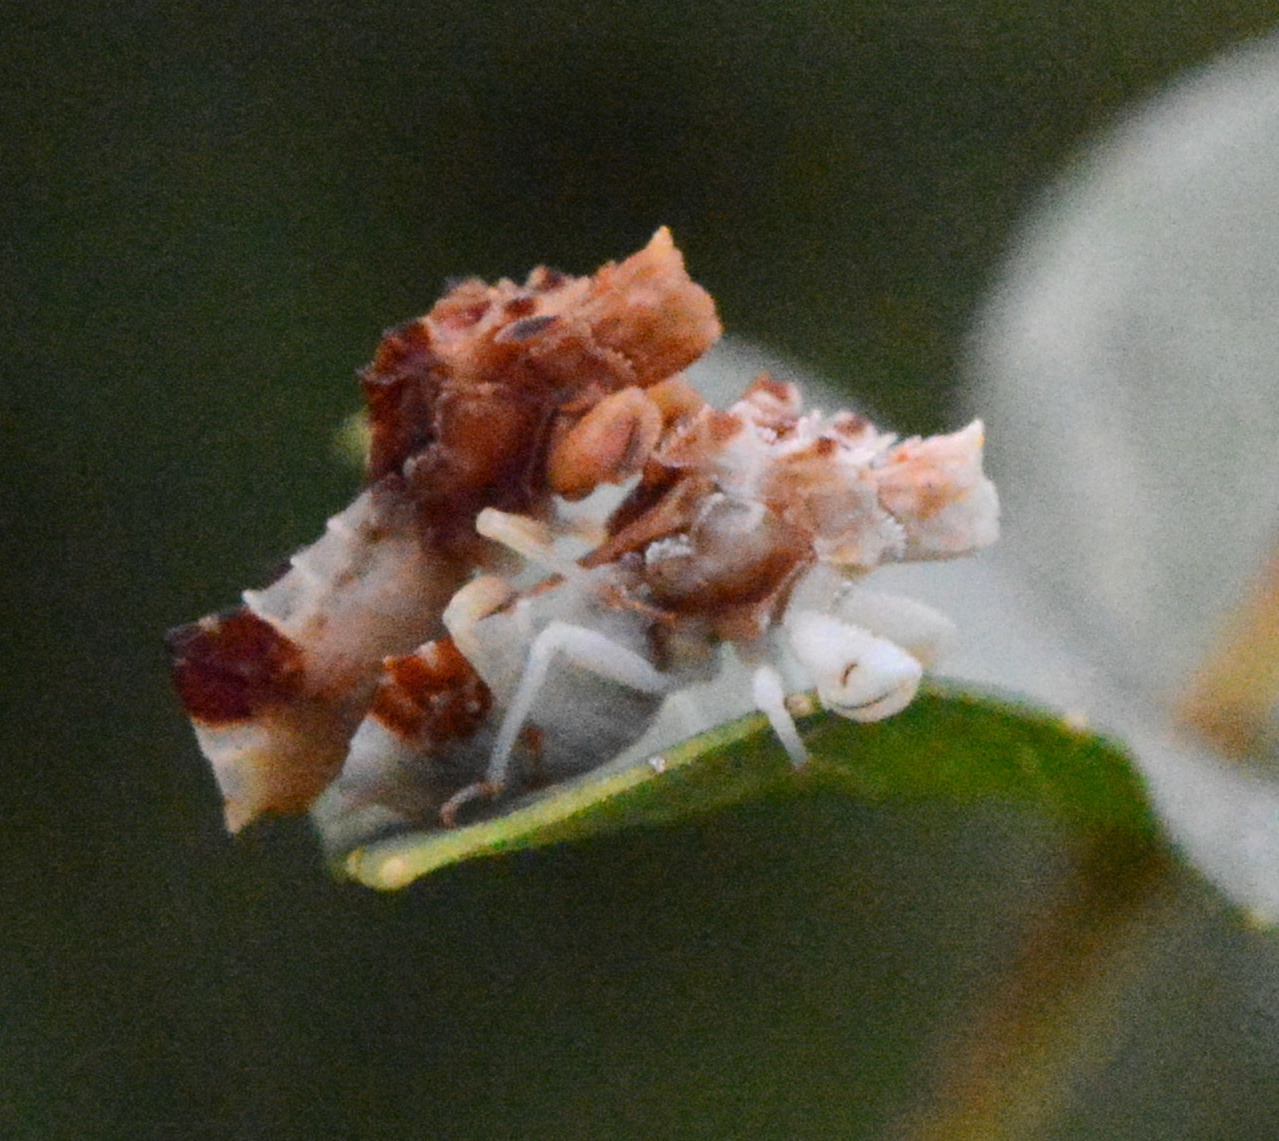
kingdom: Animalia
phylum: Arthropoda
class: Insecta
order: Hemiptera
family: Reduviidae
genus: Phymata
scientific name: Phymata fasciata
